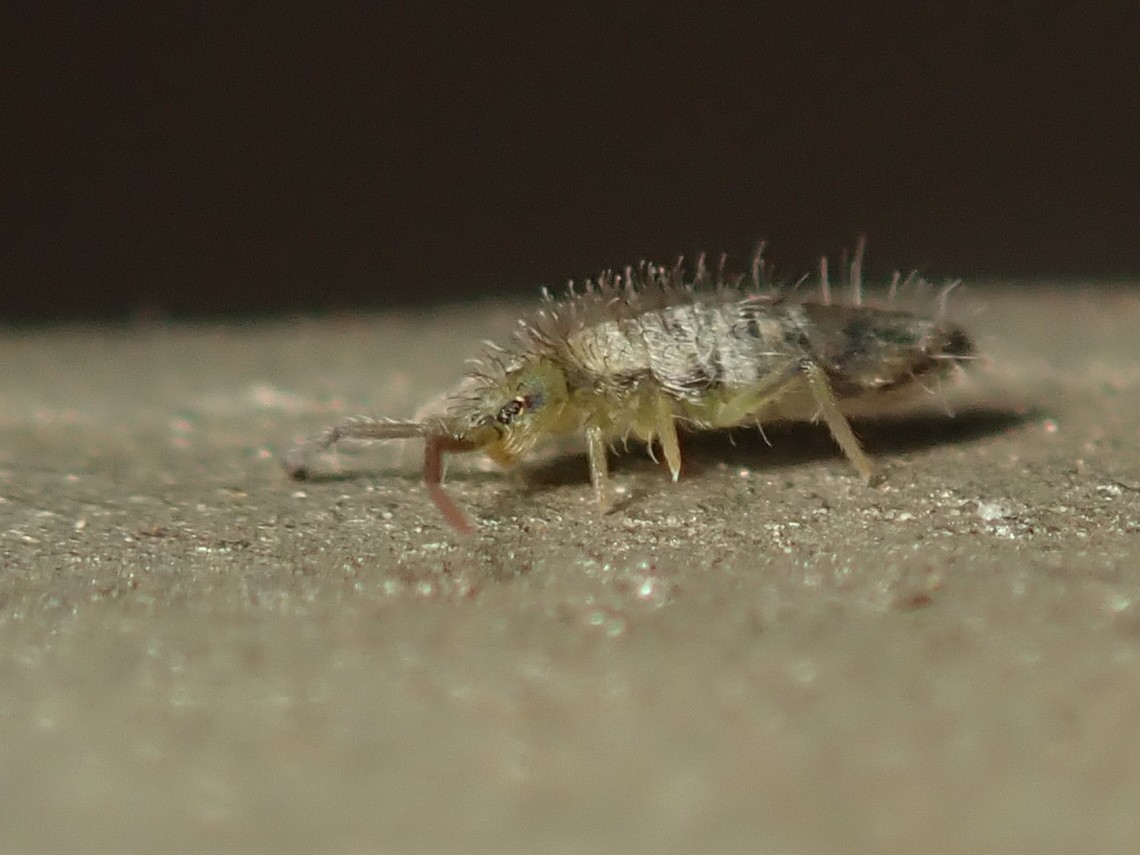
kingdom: Animalia
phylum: Arthropoda
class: Collembola
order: Entomobryomorpha
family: Entomobryidae
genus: Entomobrya
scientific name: Entomobrya multifasciata
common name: Springtail
